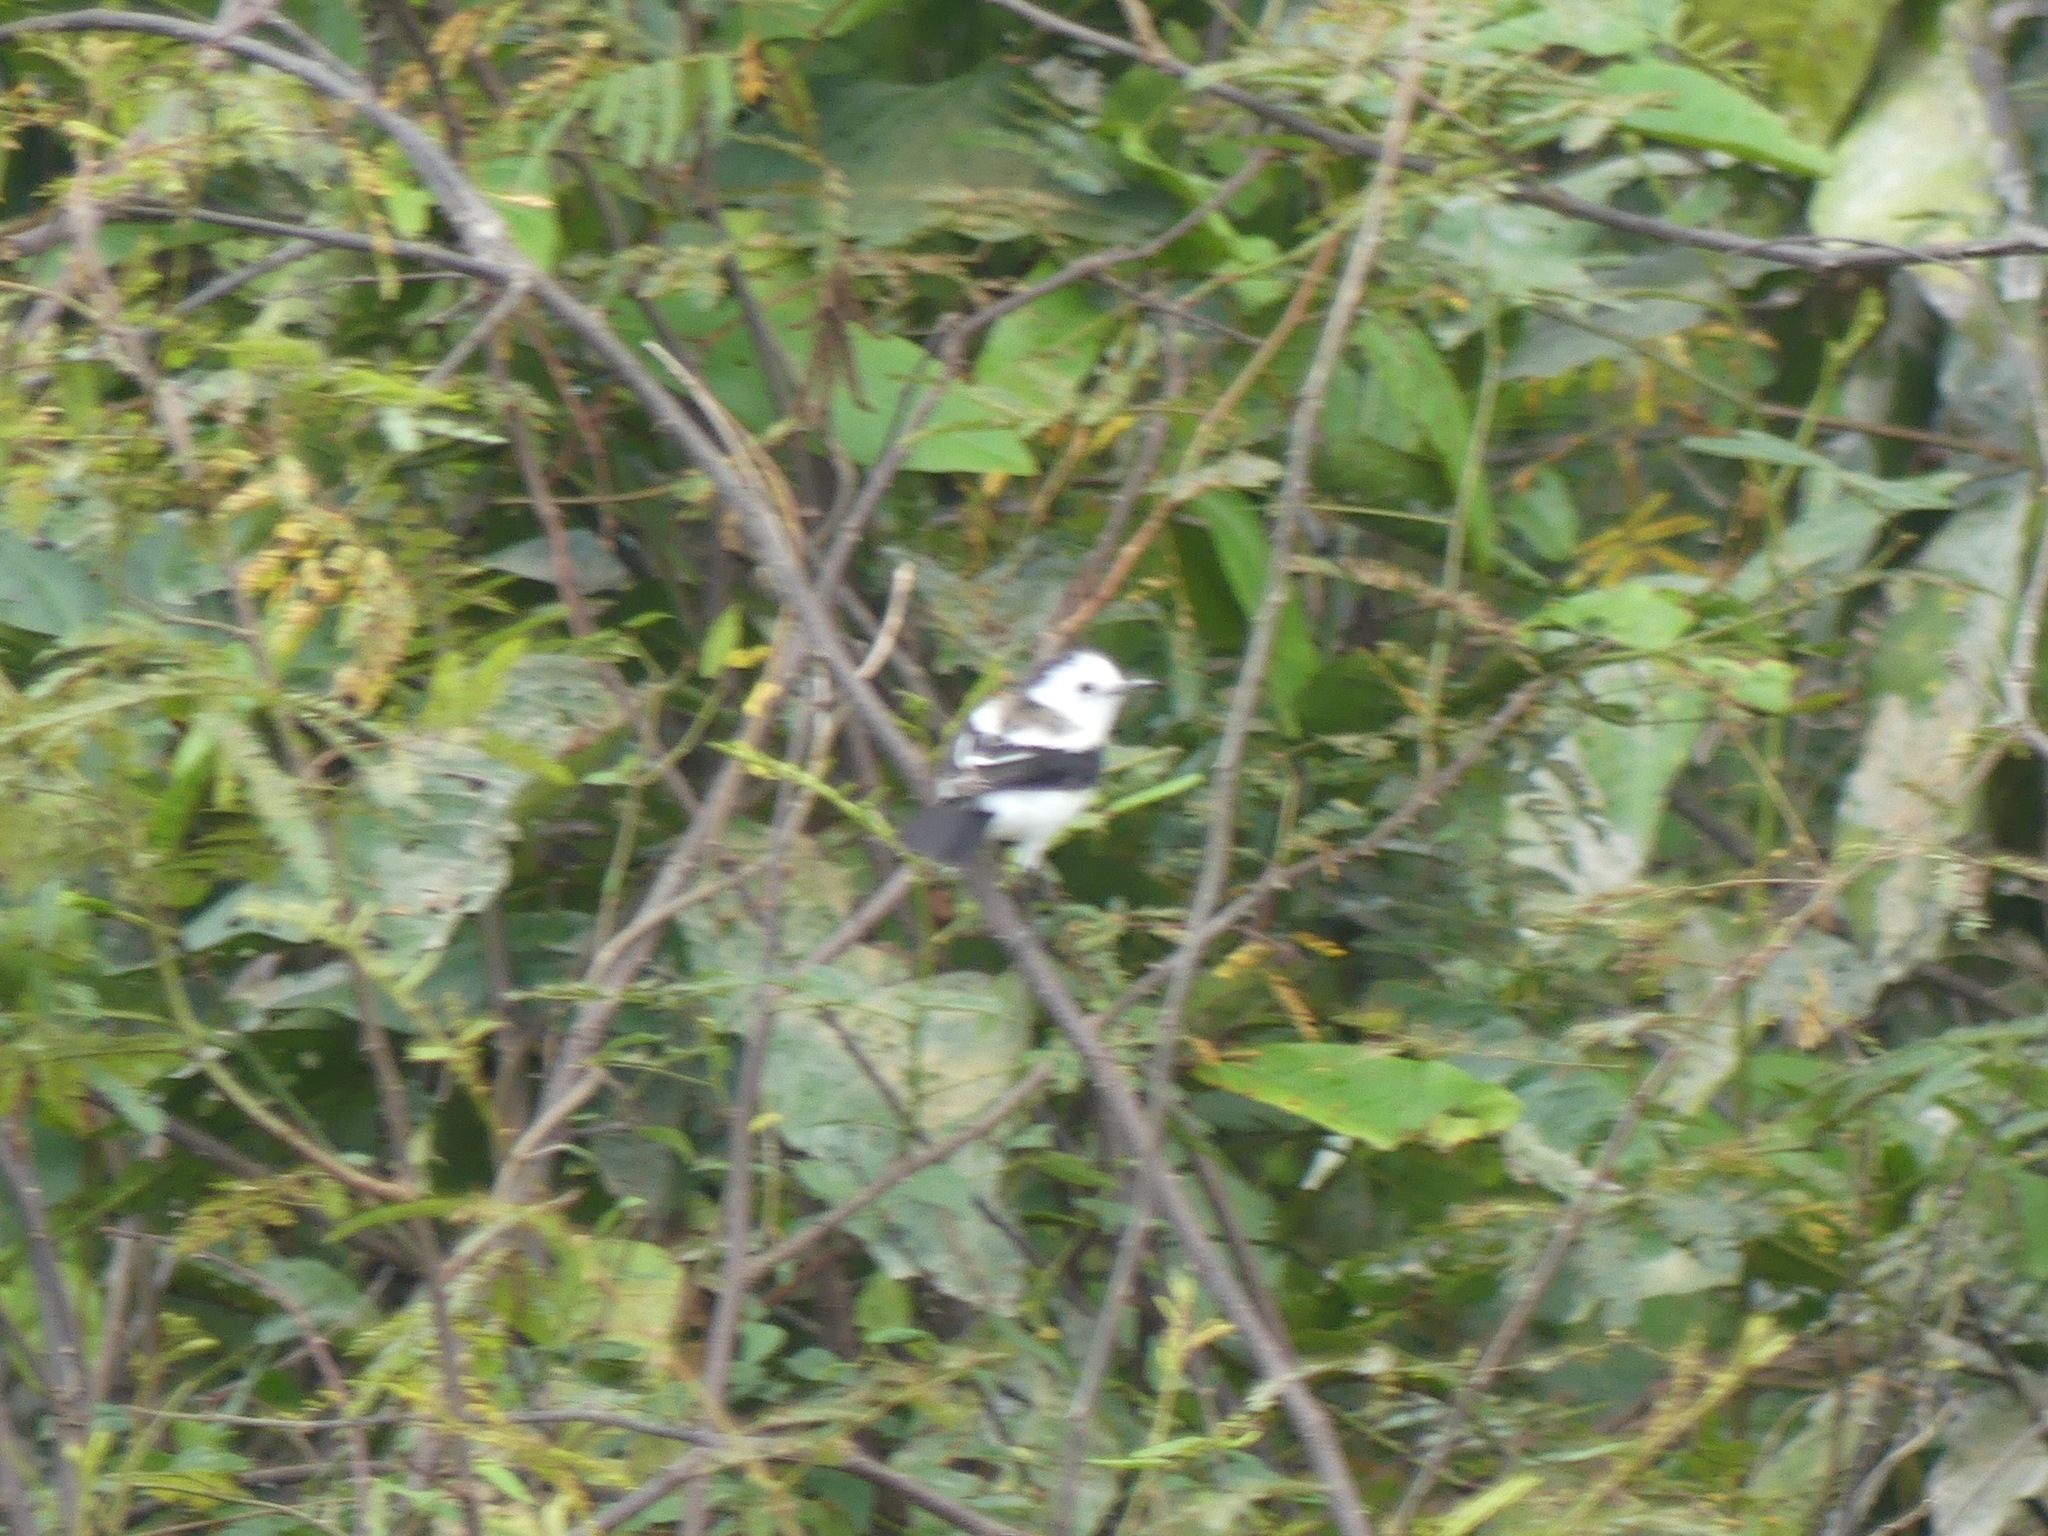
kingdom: Animalia
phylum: Chordata
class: Aves
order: Passeriformes
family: Tyrannidae
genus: Fluvicola
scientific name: Fluvicola pica
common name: Pied water-tyrant
